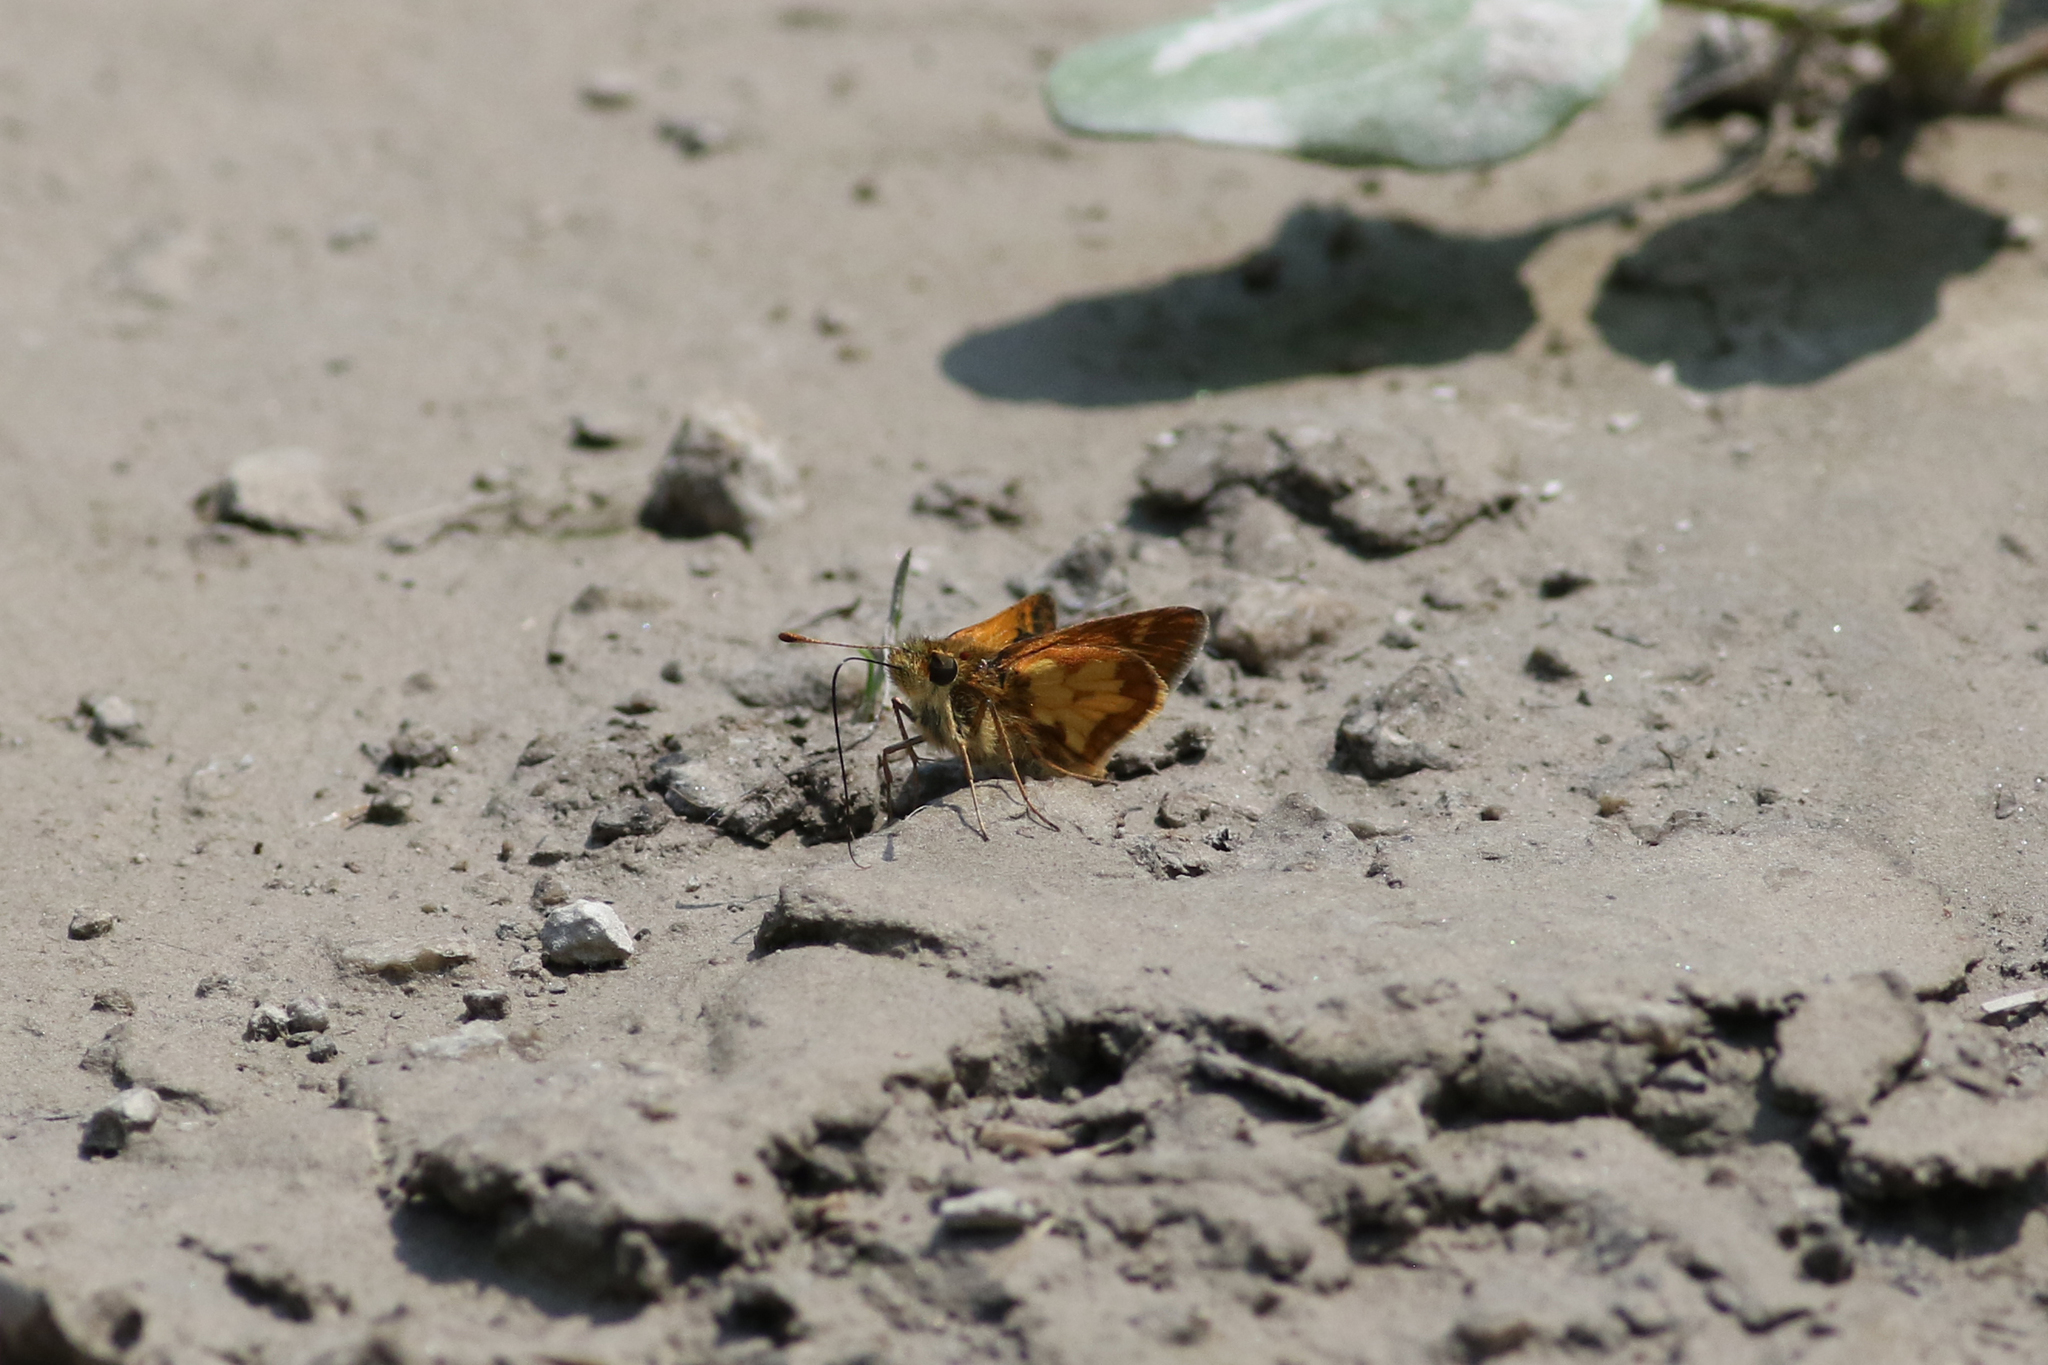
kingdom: Animalia
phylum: Arthropoda
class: Insecta
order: Lepidoptera
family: Hesperiidae
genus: Polites
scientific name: Polites coras
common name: Peck's skipper
